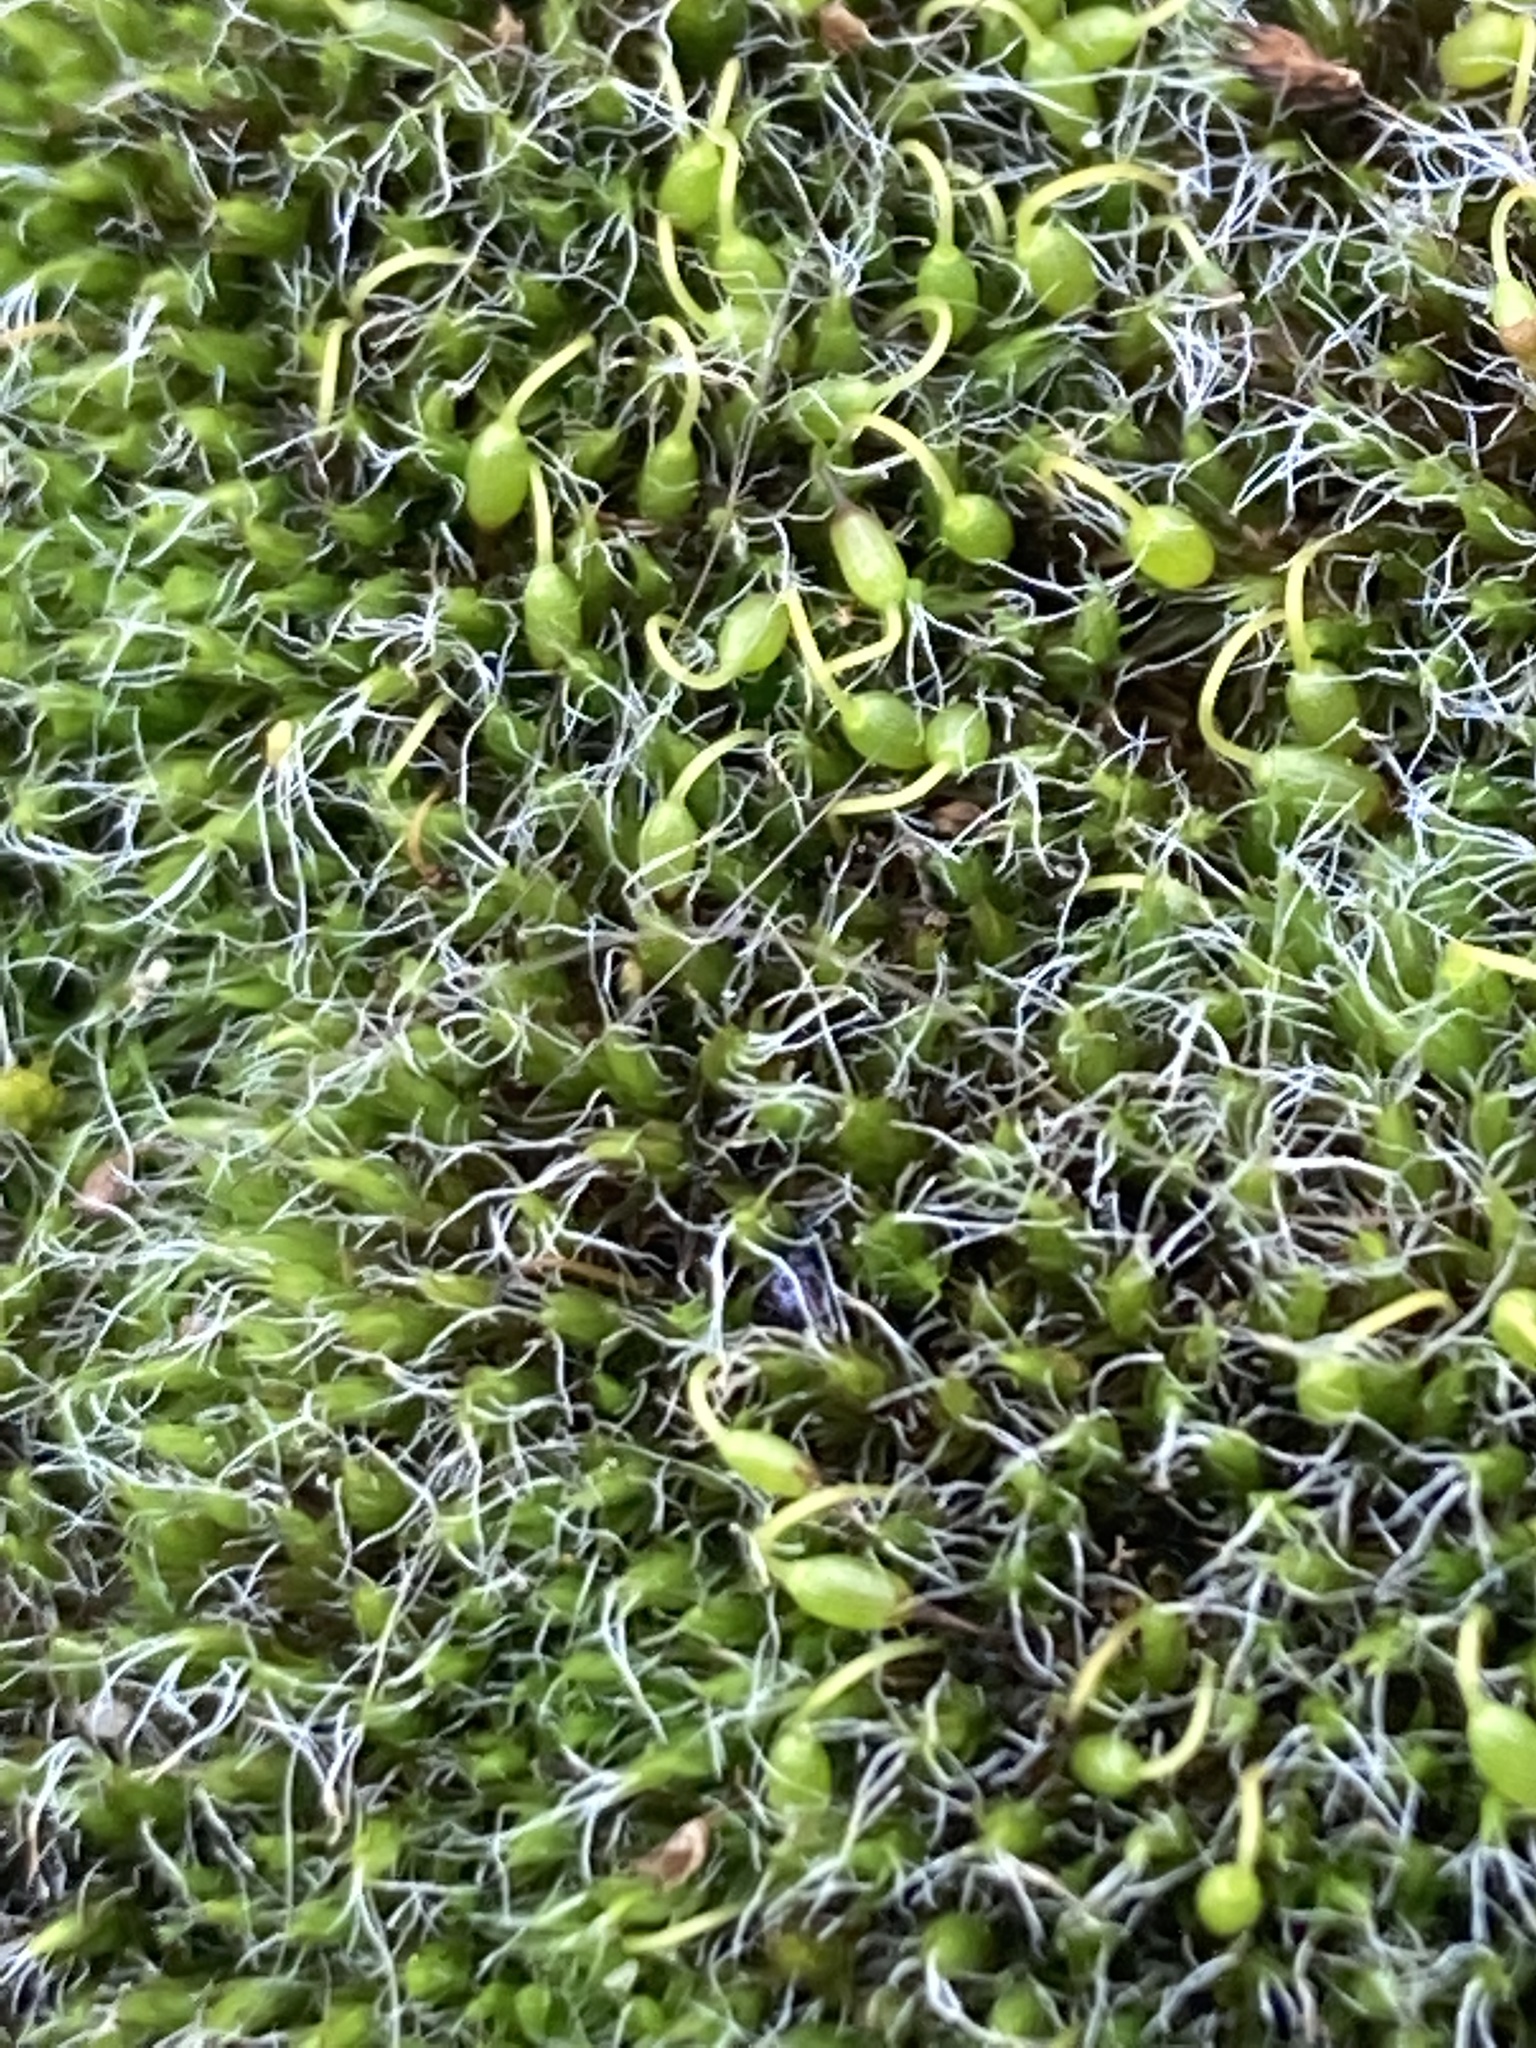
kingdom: Plantae
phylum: Bryophyta
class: Bryopsida
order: Grimmiales
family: Grimmiaceae
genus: Grimmia
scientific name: Grimmia pulvinata
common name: Grey-cushioned grimmia
